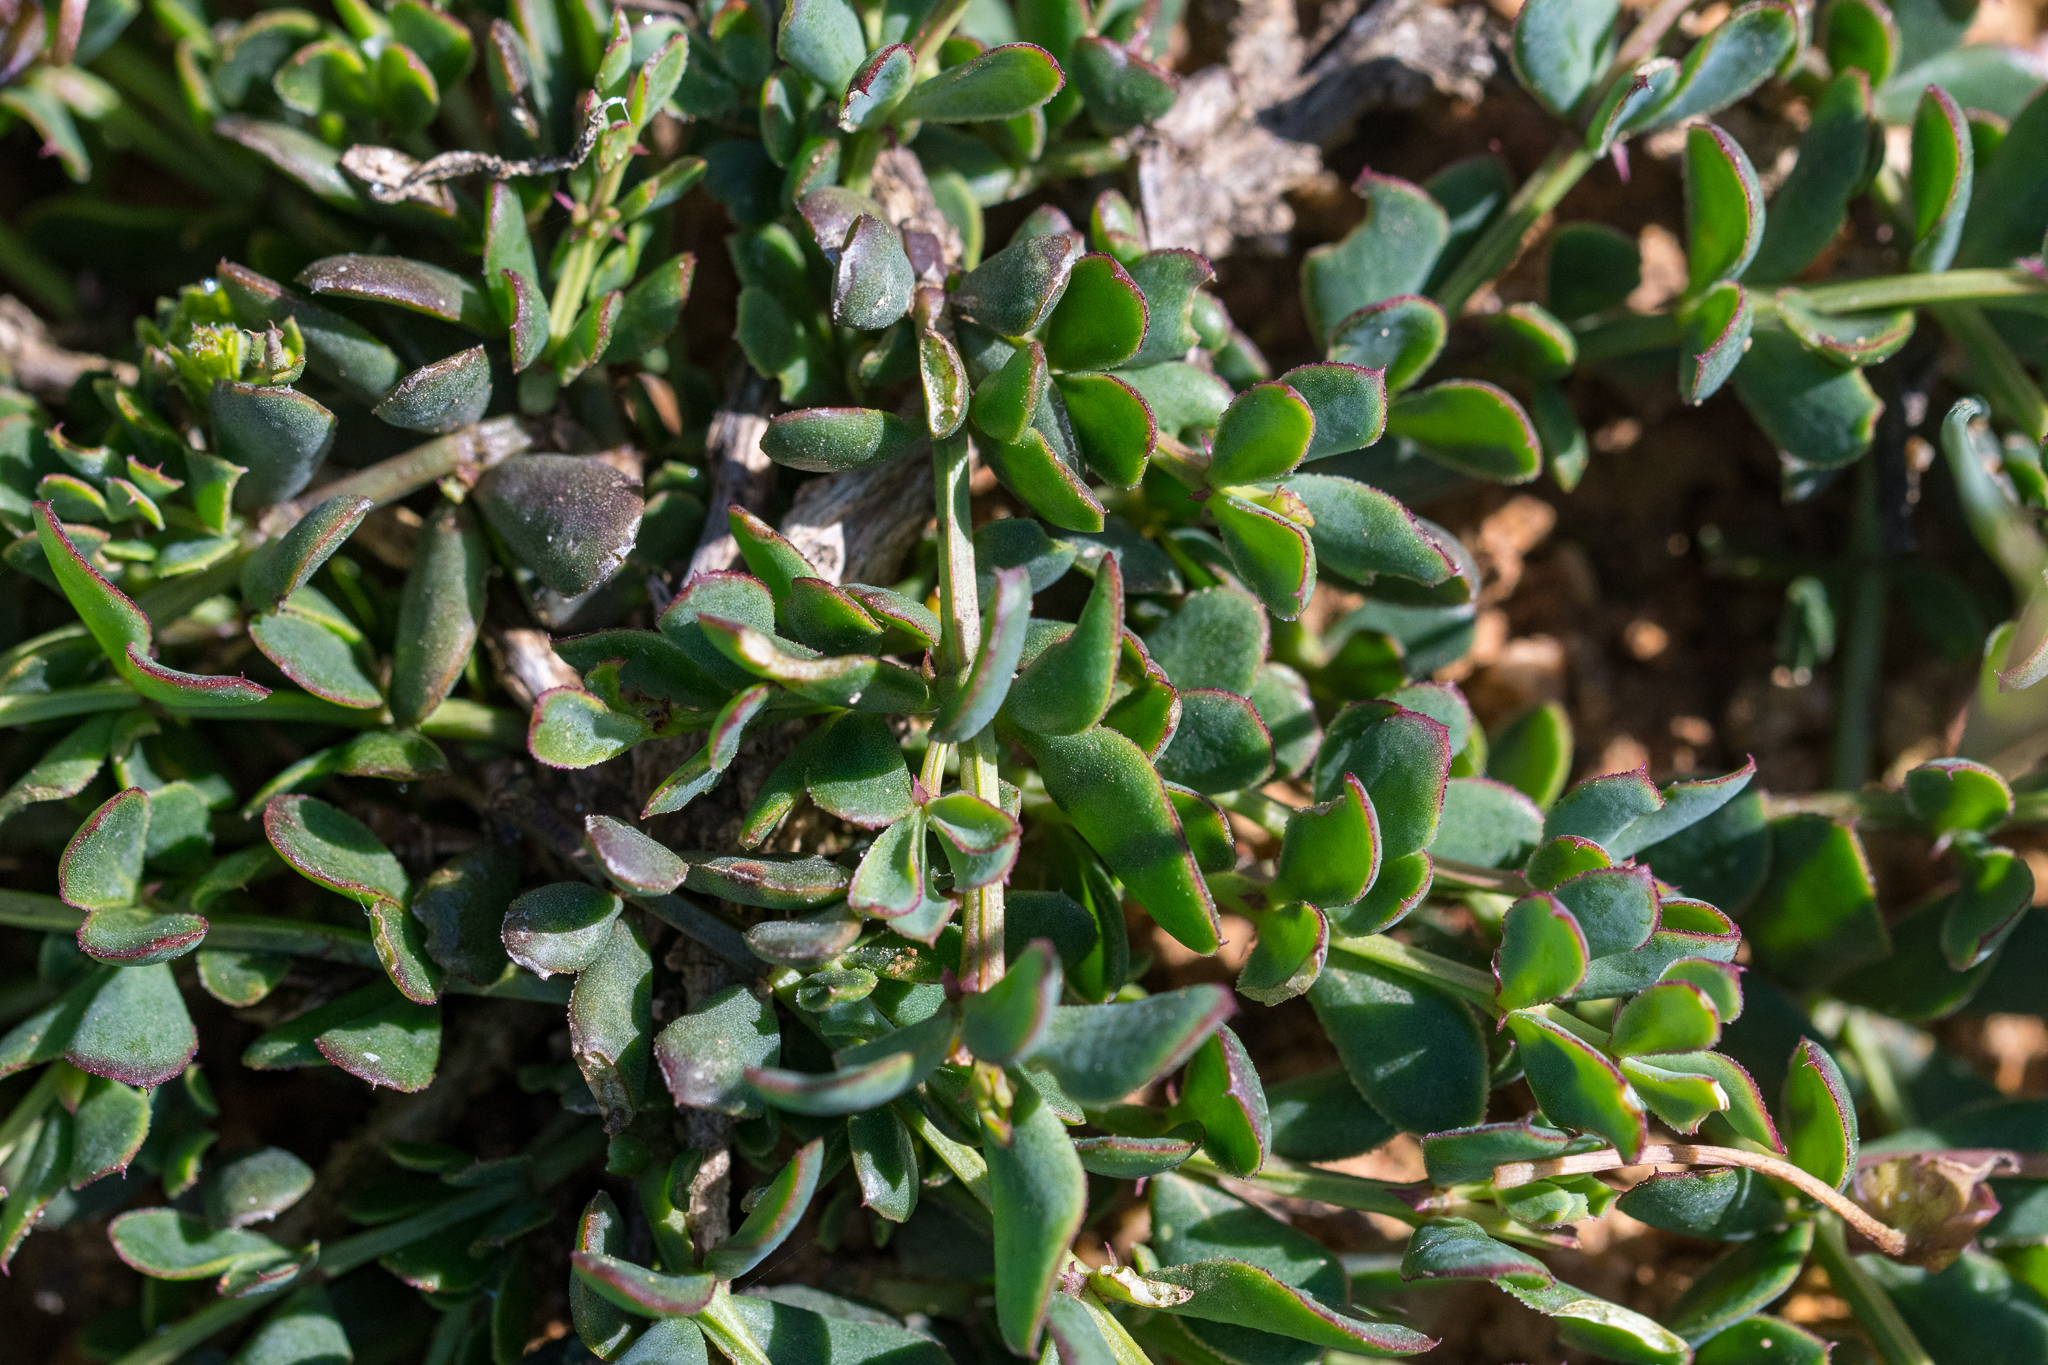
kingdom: Plantae
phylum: Tracheophyta
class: Magnoliopsida
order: Zygophyllales
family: Zygophyllaceae
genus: Roepera
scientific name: Roepera sessilifolia
